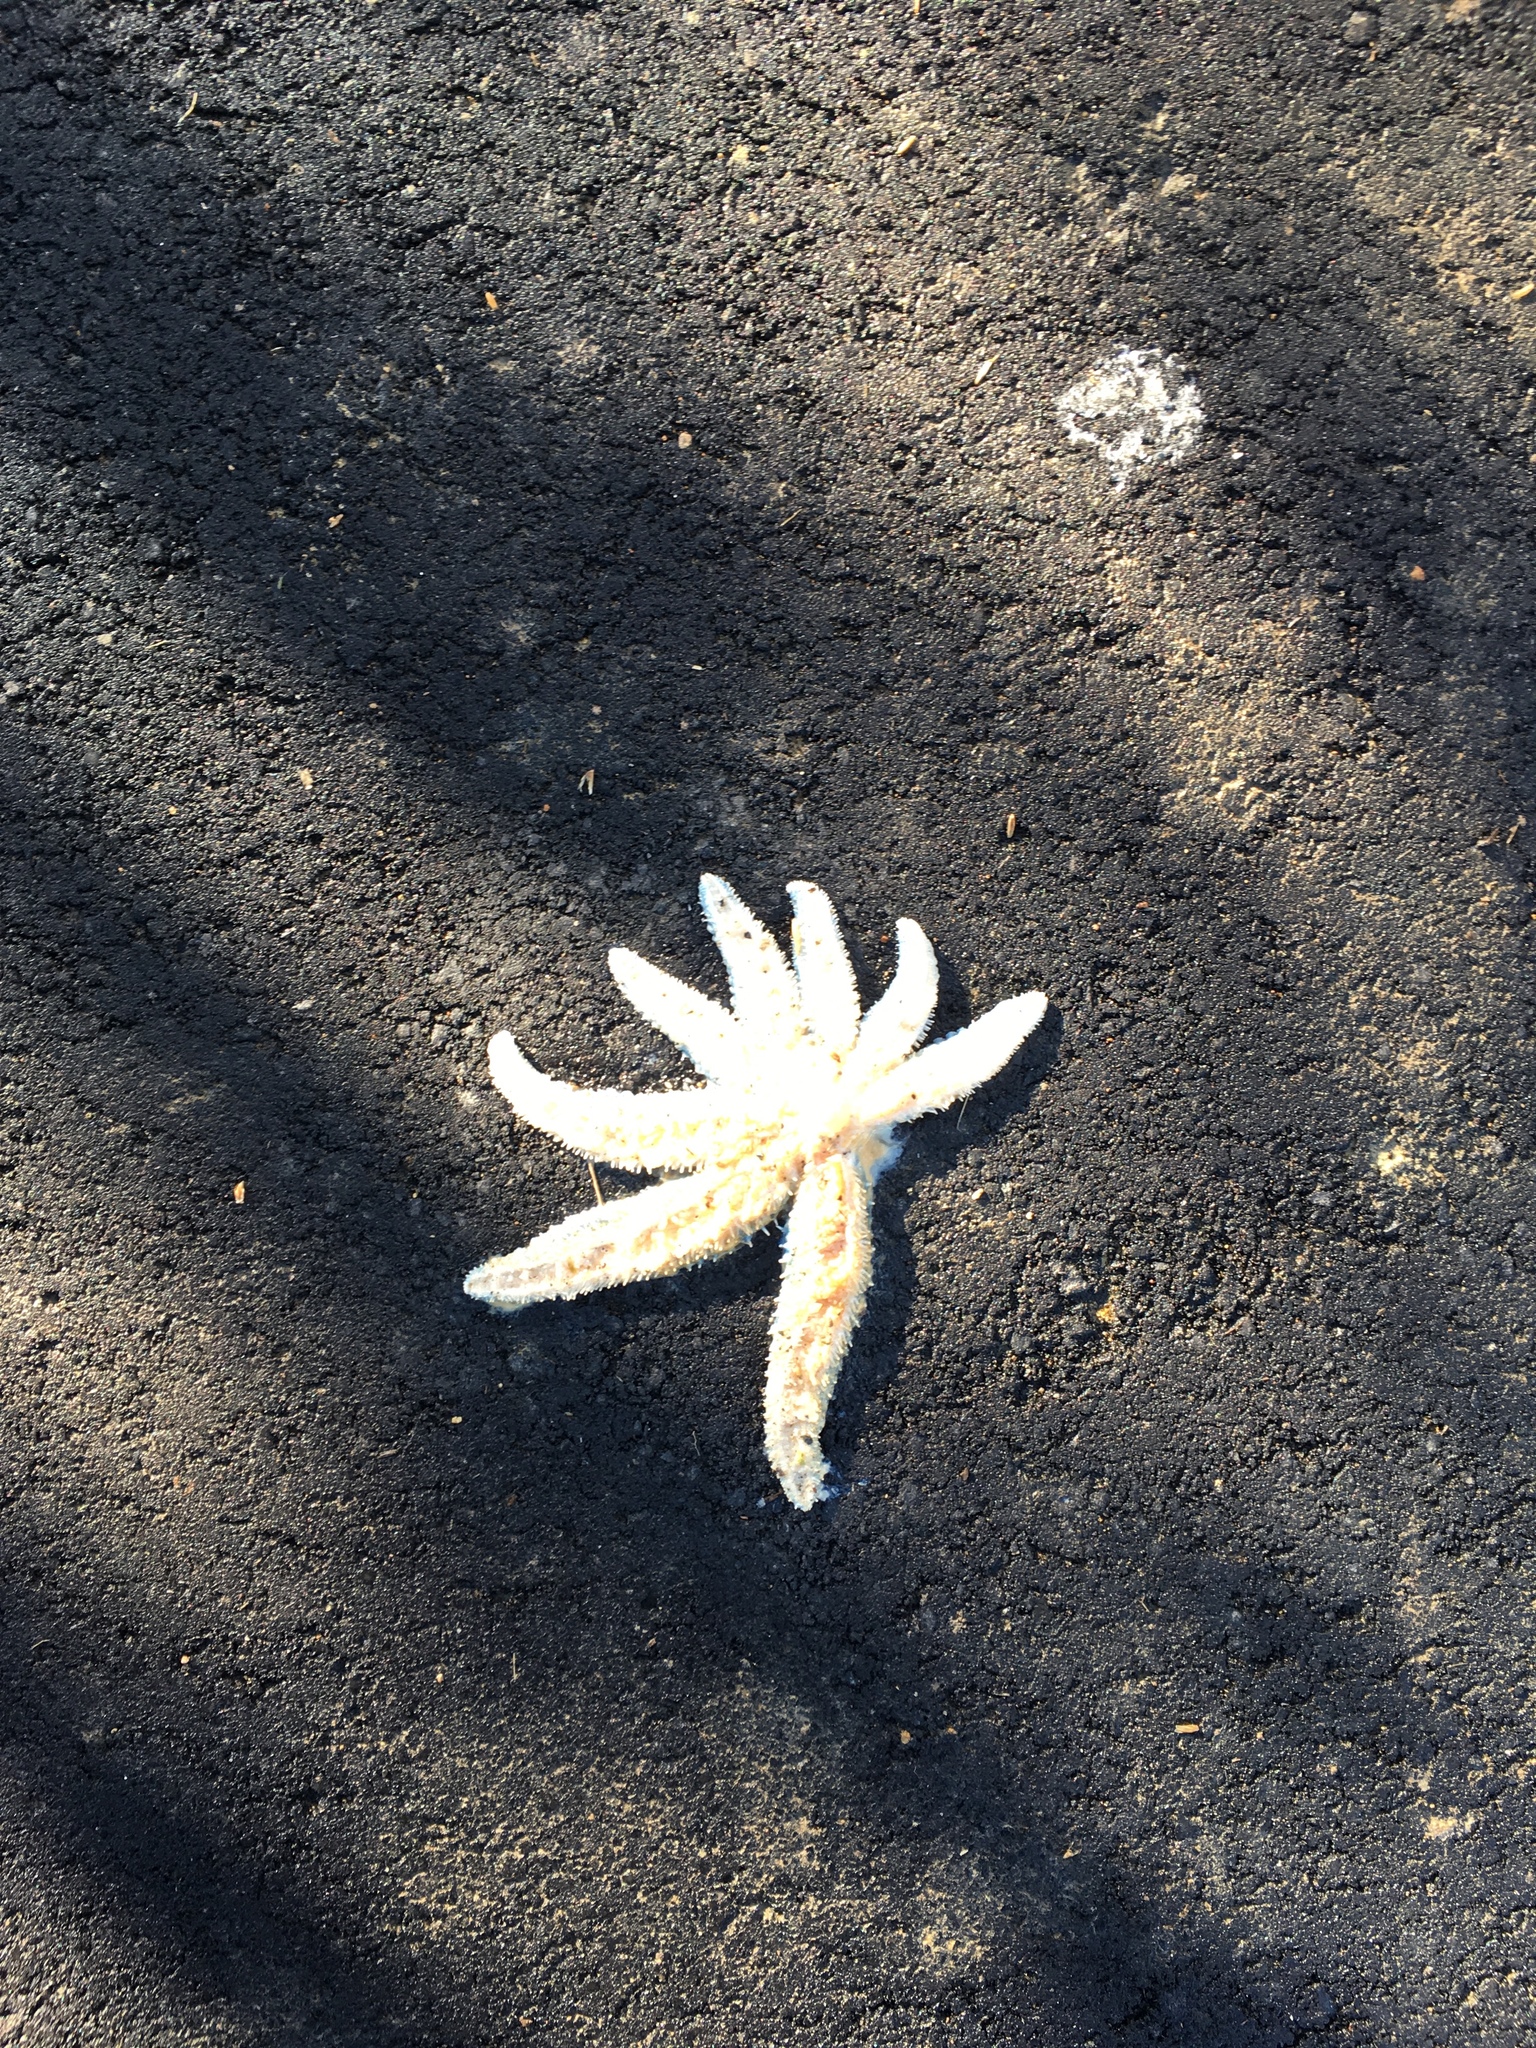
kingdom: Animalia
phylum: Echinodermata
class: Asteroidea
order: Forcipulatida
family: Asteriidae
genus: Coscinasterias
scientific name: Coscinasterias muricata
